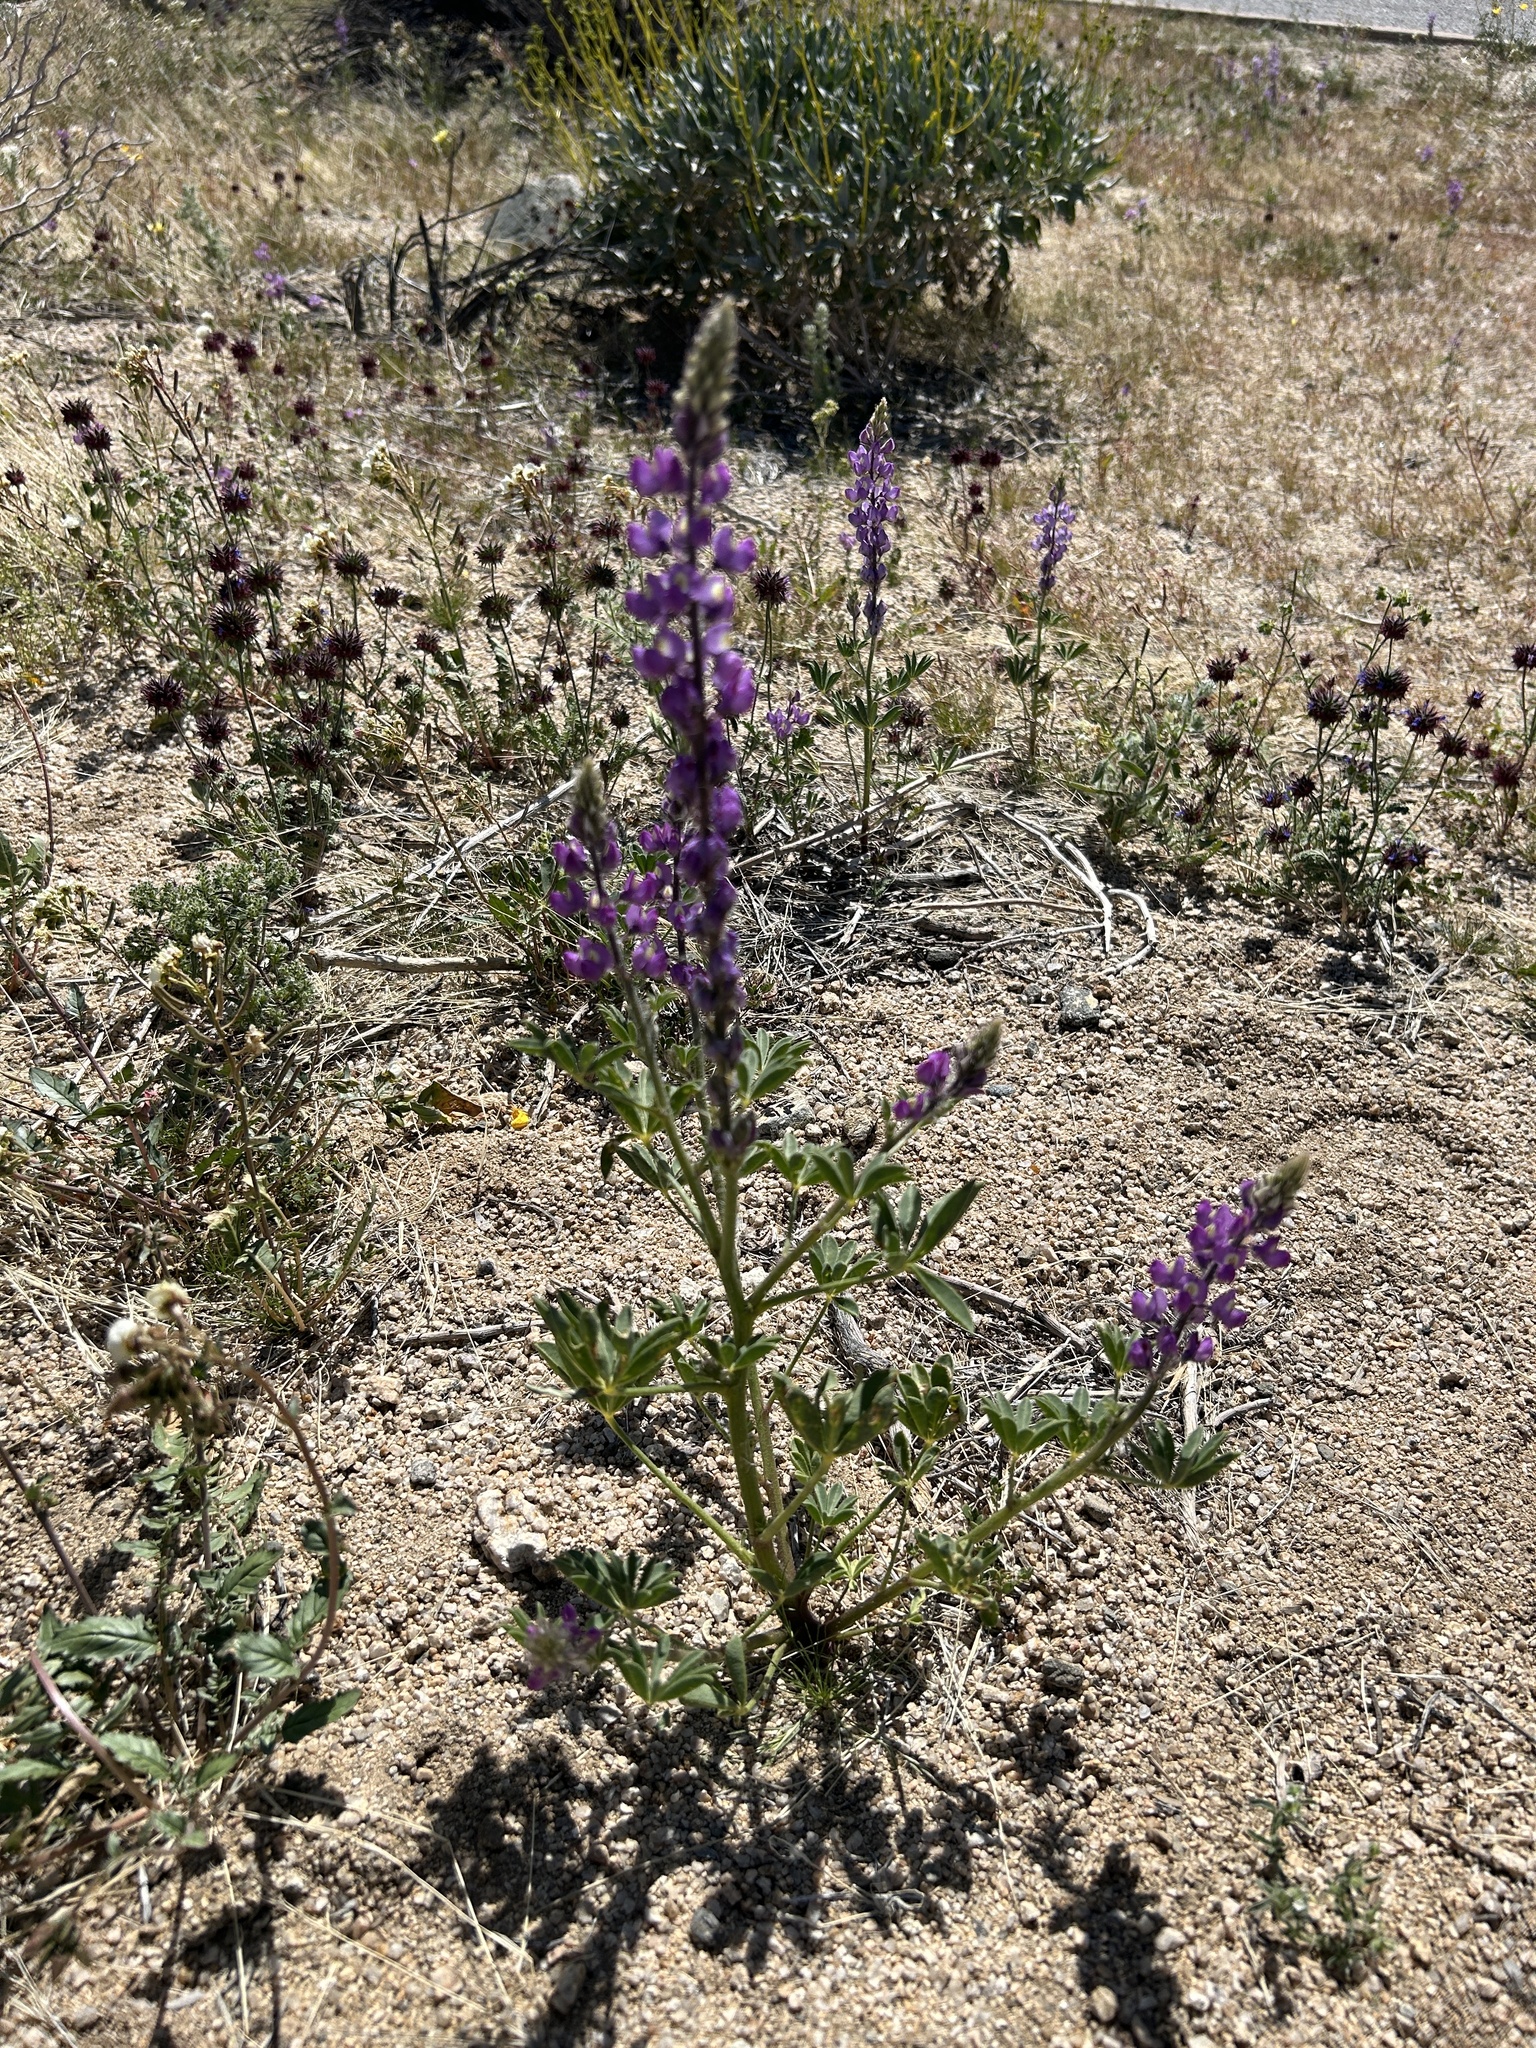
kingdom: Plantae
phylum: Tracheophyta
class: Magnoliopsida
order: Fabales
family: Fabaceae
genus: Lupinus
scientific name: Lupinus arizonicus
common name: Arizona lupine
